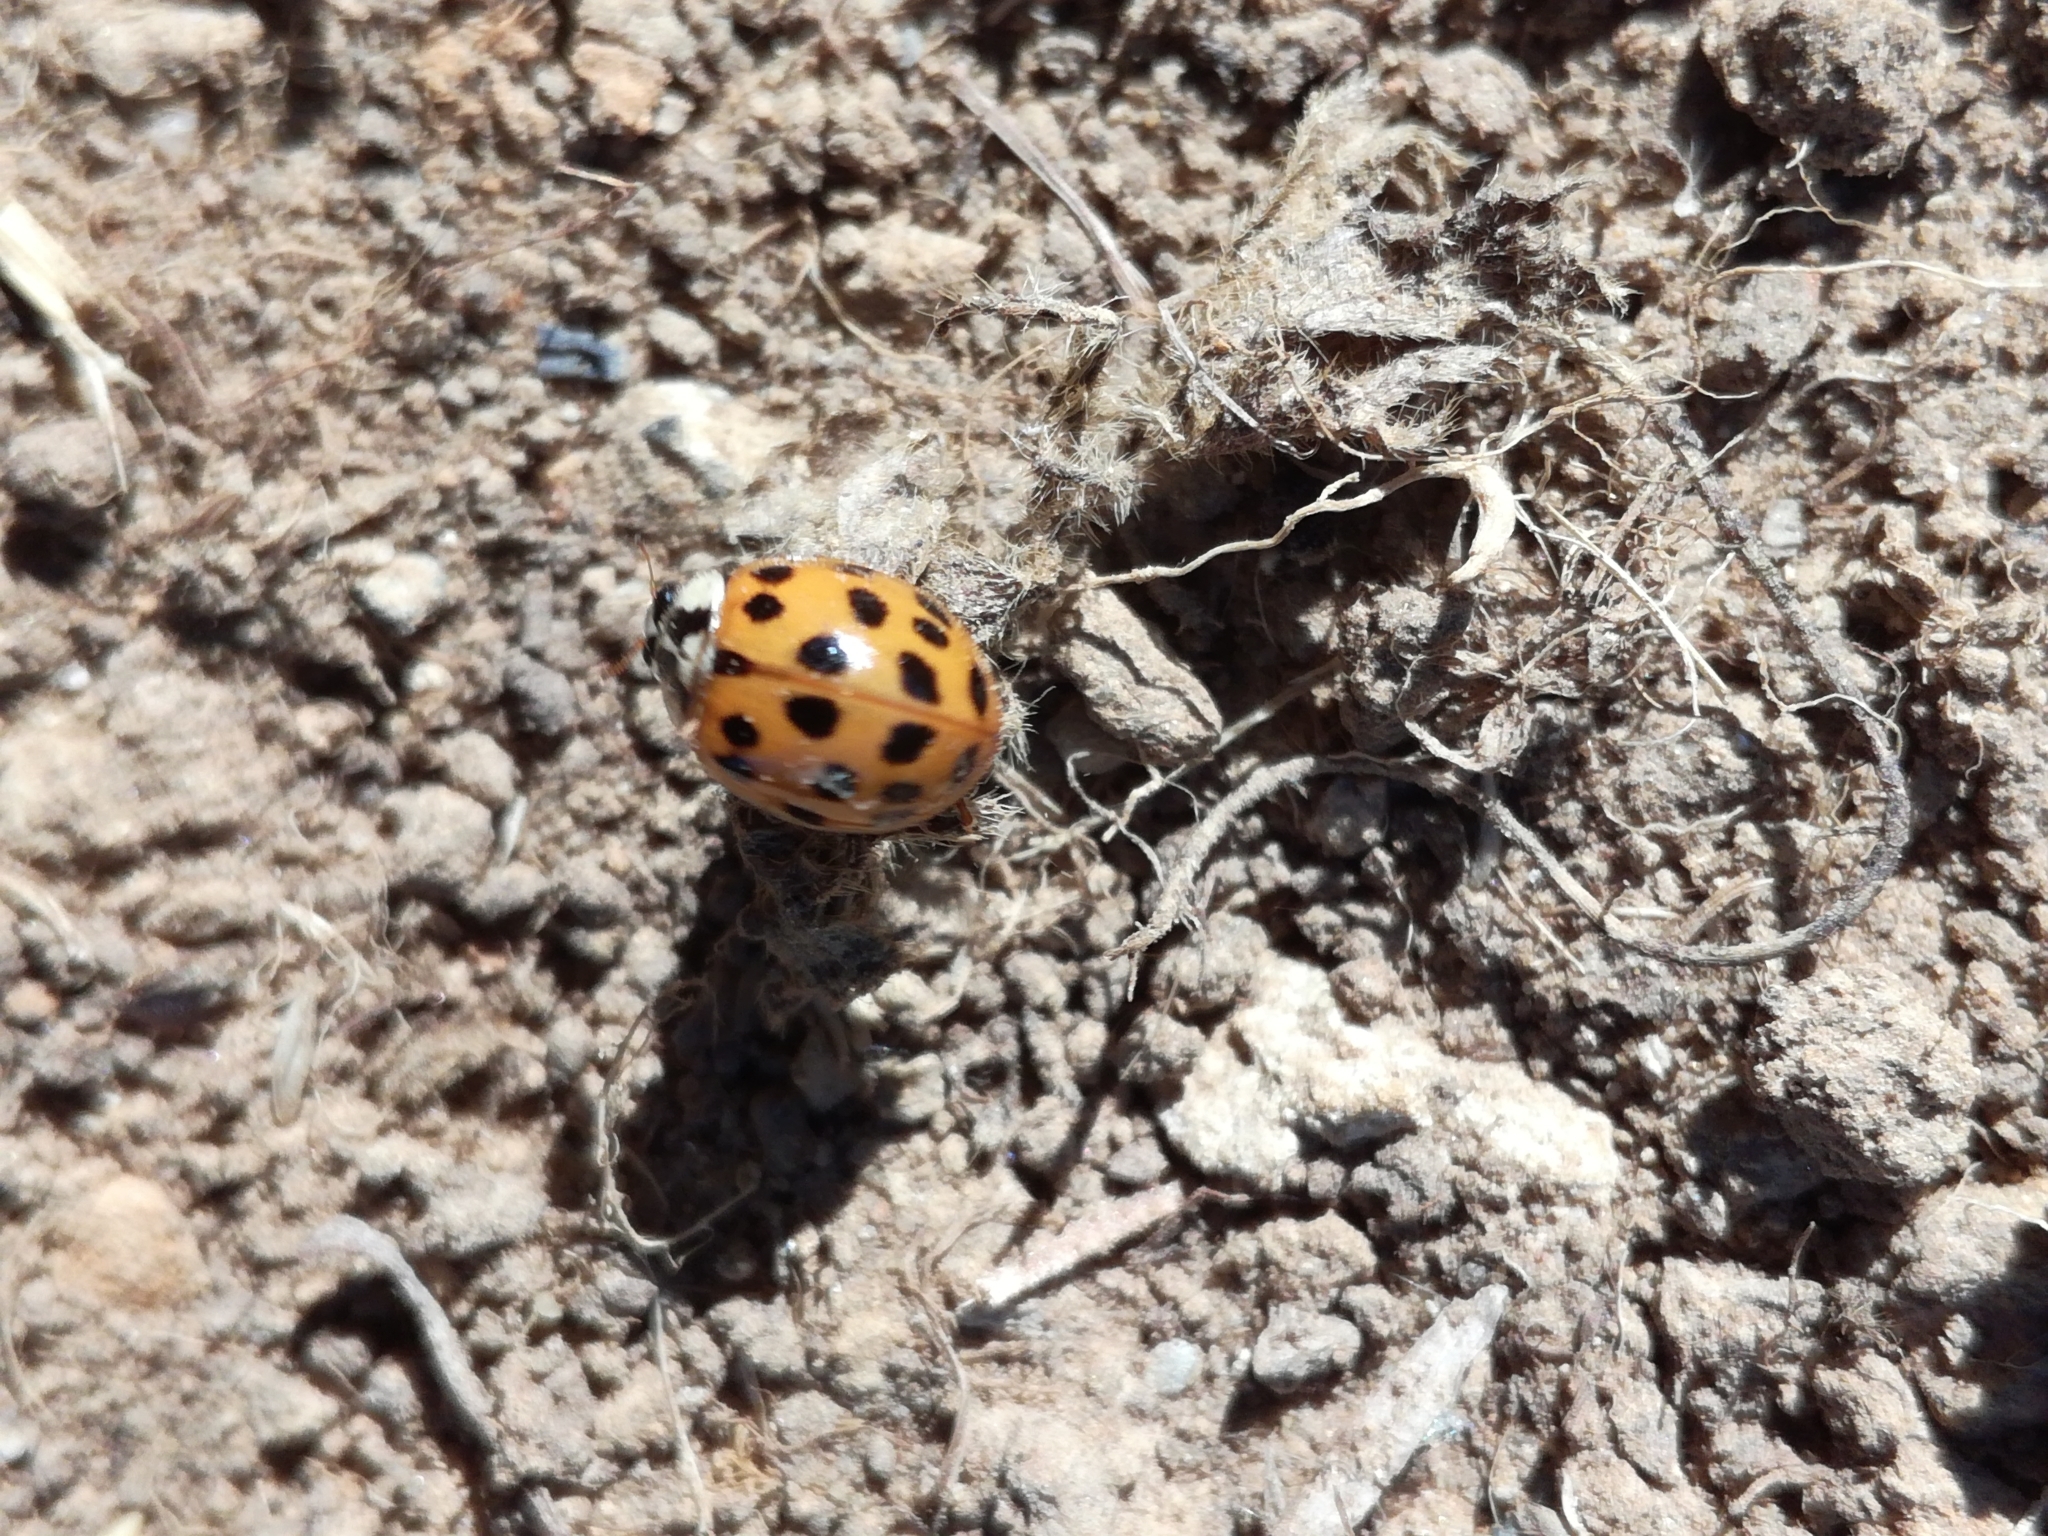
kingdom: Animalia
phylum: Arthropoda
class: Insecta
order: Coleoptera
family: Coccinellidae
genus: Harmonia
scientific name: Harmonia axyridis
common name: Harlequin ladybird
